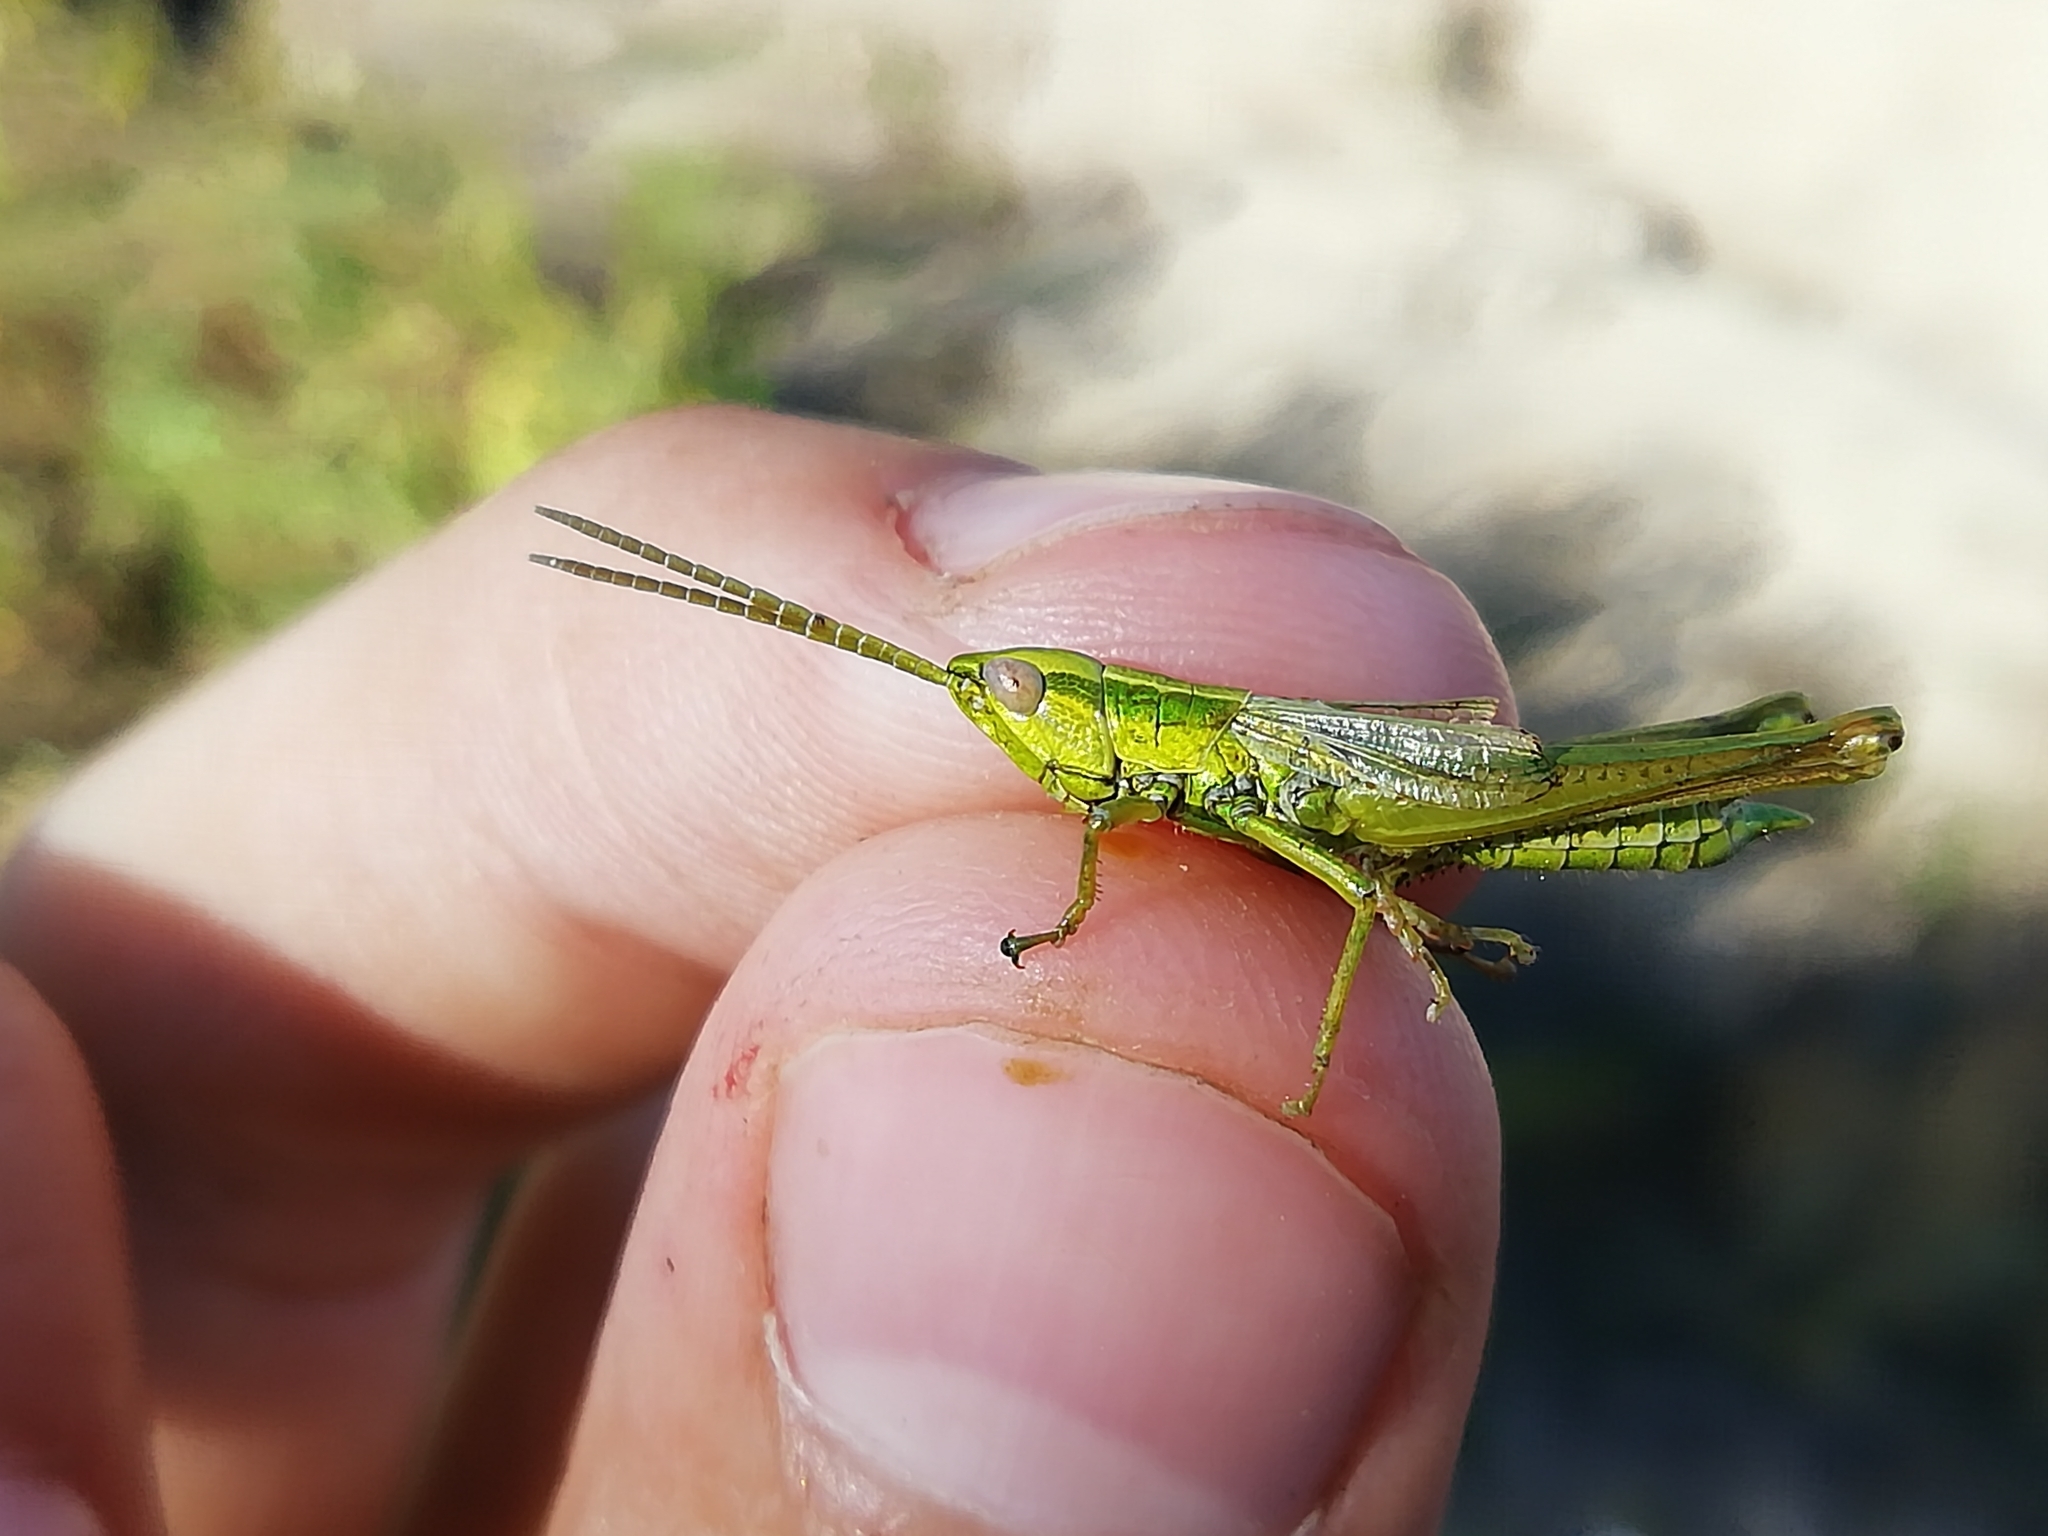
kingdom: Animalia
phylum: Arthropoda
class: Insecta
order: Orthoptera
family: Acrididae
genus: Euthystira
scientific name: Euthystira brachyptera
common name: Small gold grasshopper
